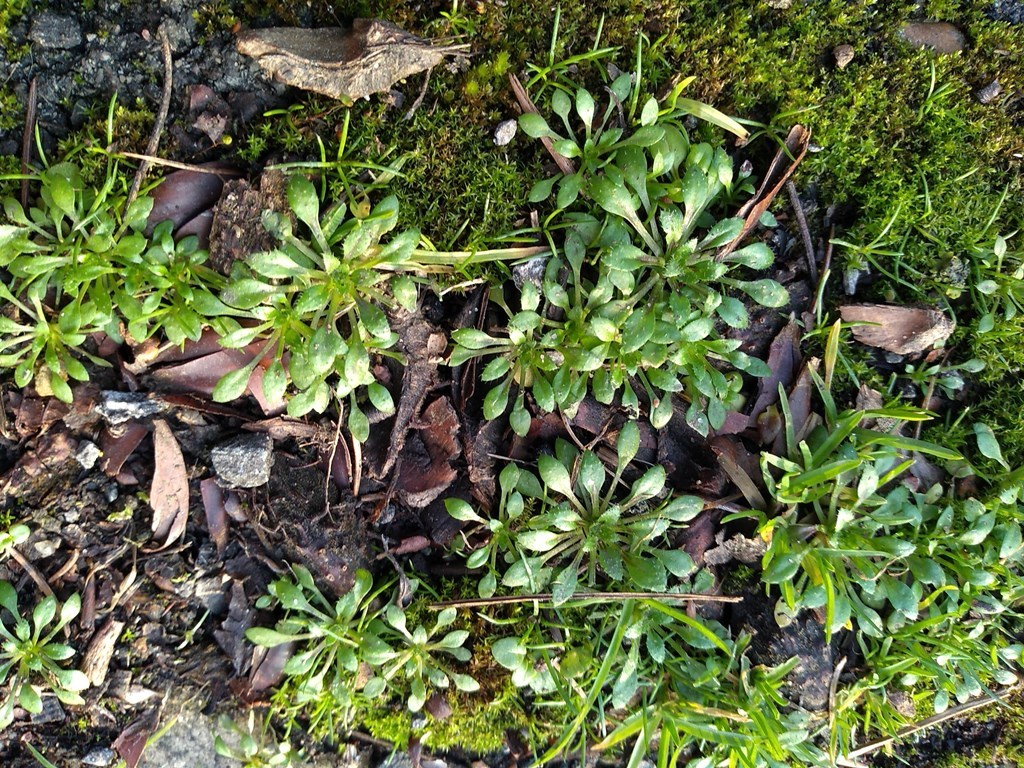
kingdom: Plantae
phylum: Tracheophyta
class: Magnoliopsida
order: Brassicales
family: Brassicaceae
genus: Draba
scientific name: Draba verna
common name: Spring draba
